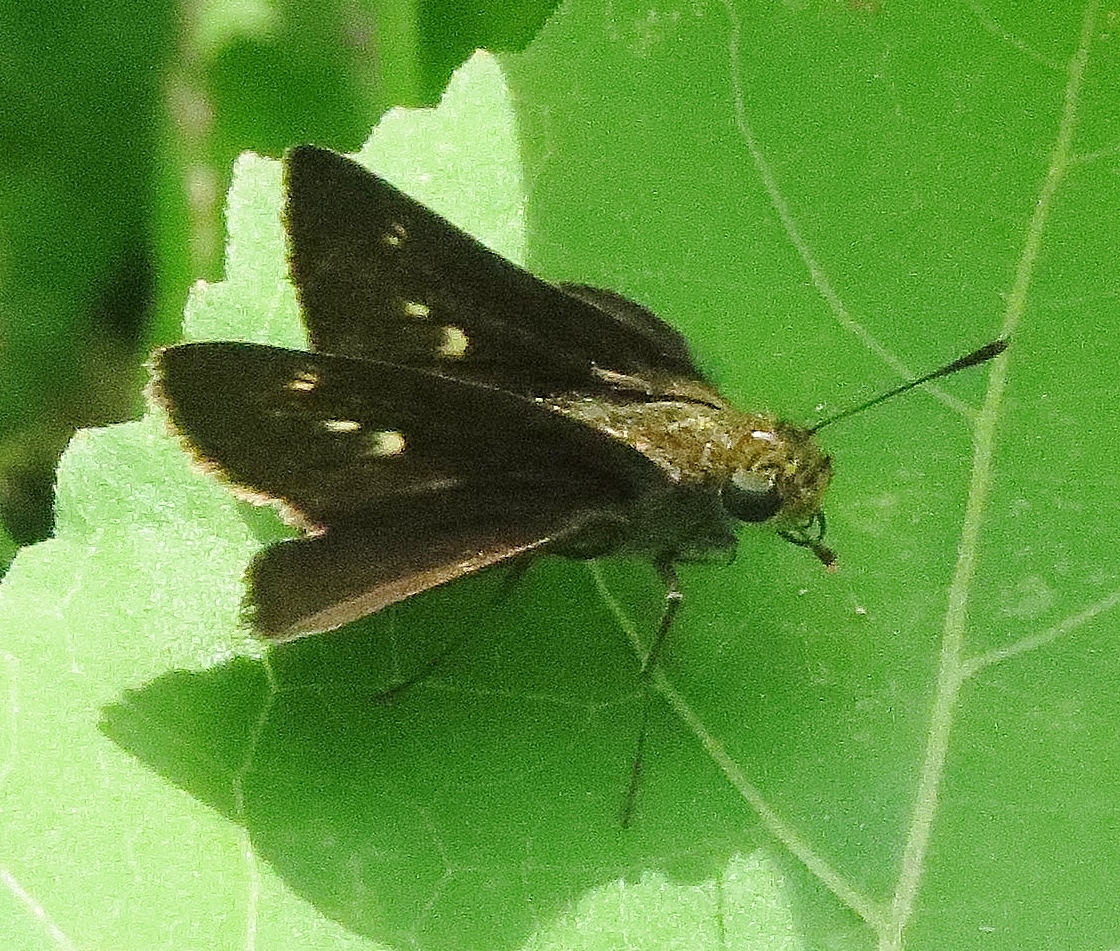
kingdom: Animalia
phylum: Arthropoda
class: Insecta
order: Lepidoptera
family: Hesperiidae
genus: Euphyes
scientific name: Euphyes vestris
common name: Dun skipper
